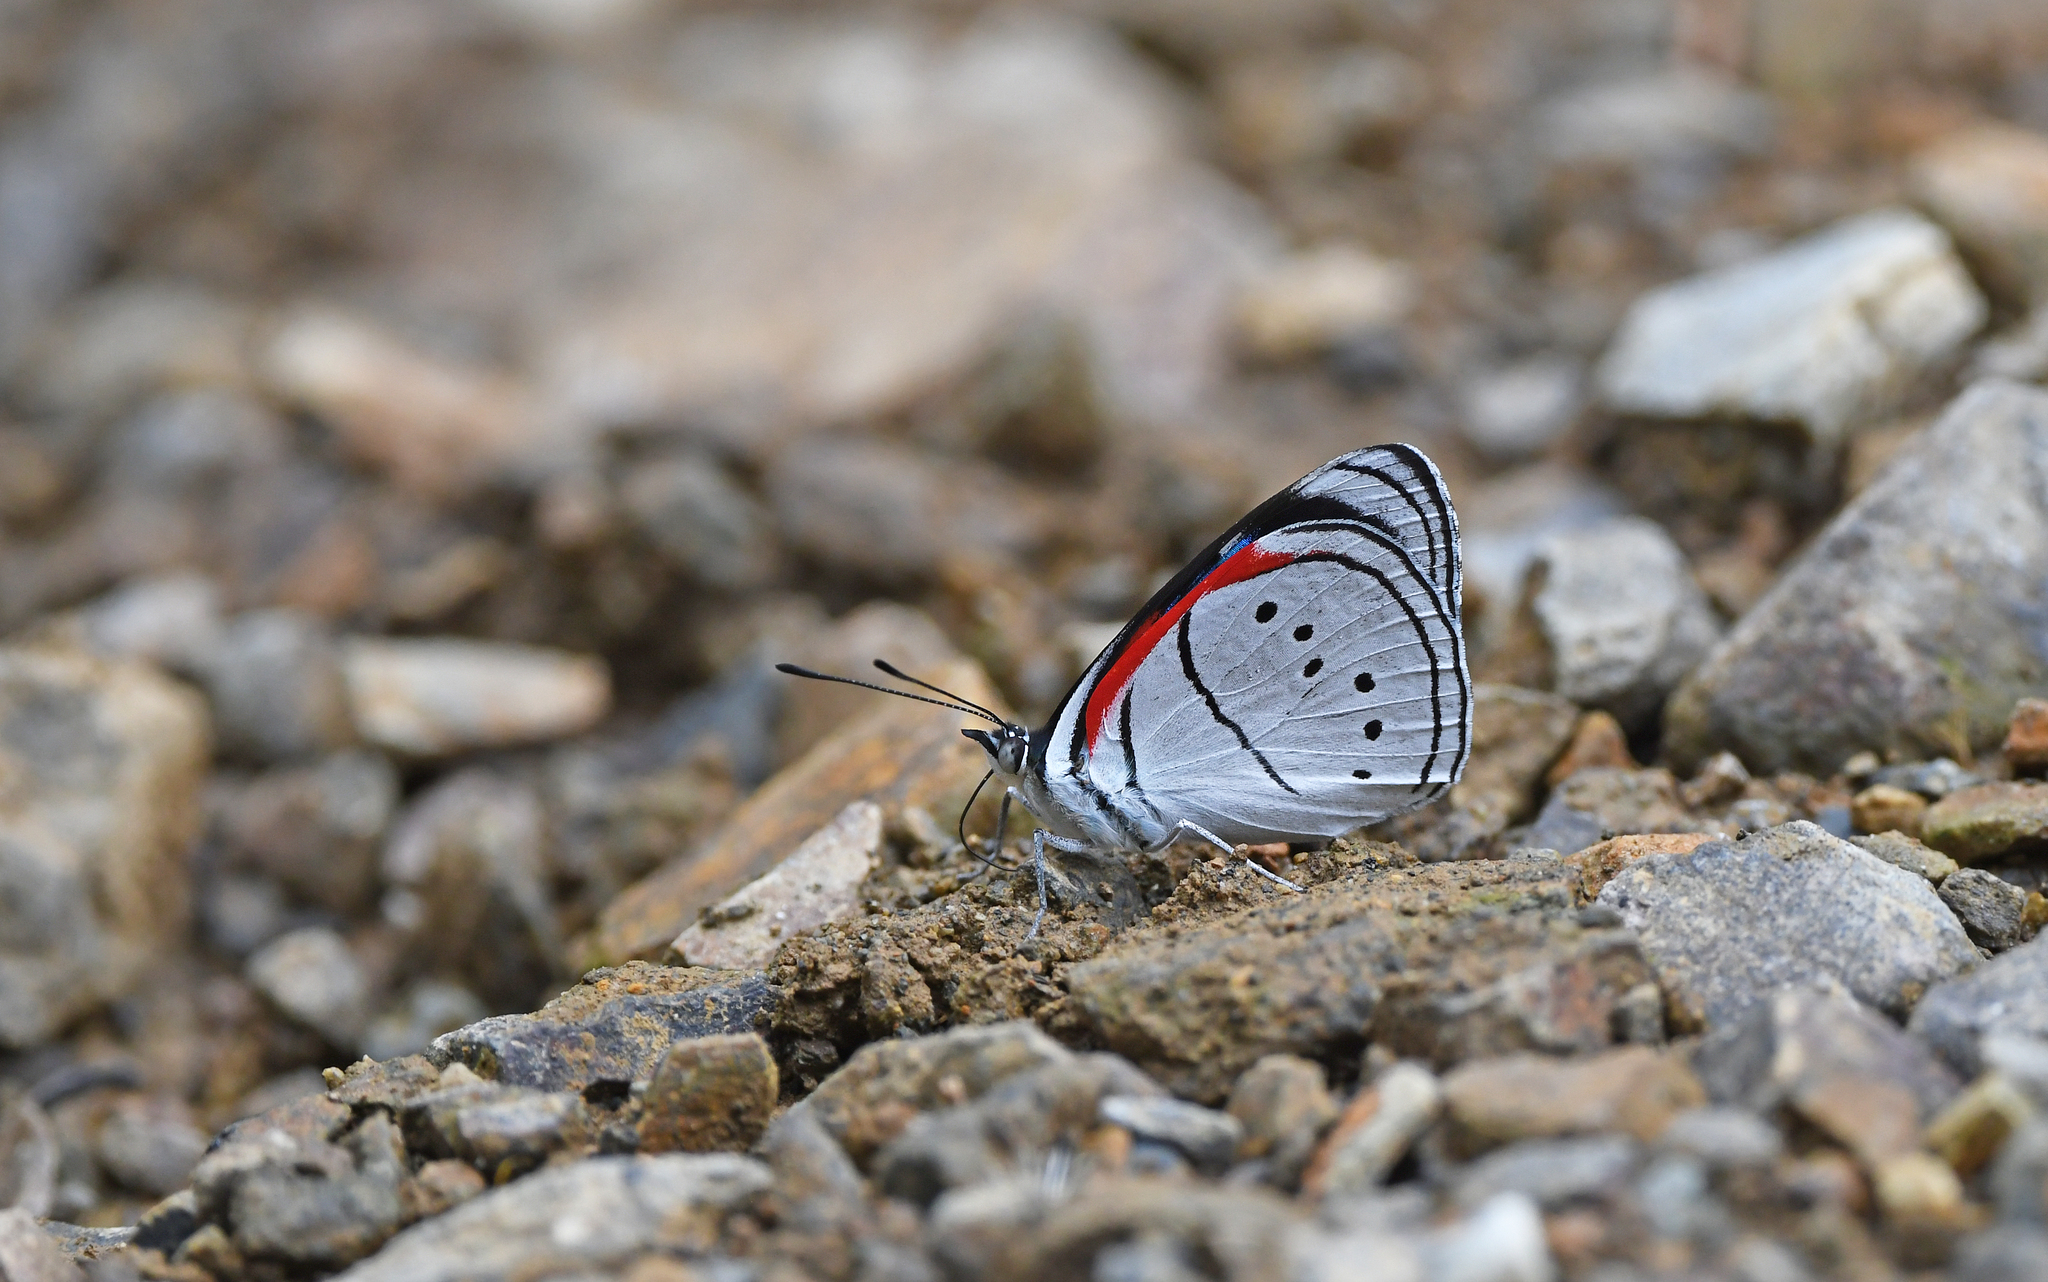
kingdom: Animalia
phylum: Arthropoda
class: Insecta
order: Lepidoptera
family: Nymphalidae
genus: Perisama
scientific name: Perisama Mesotaenia vaninka
